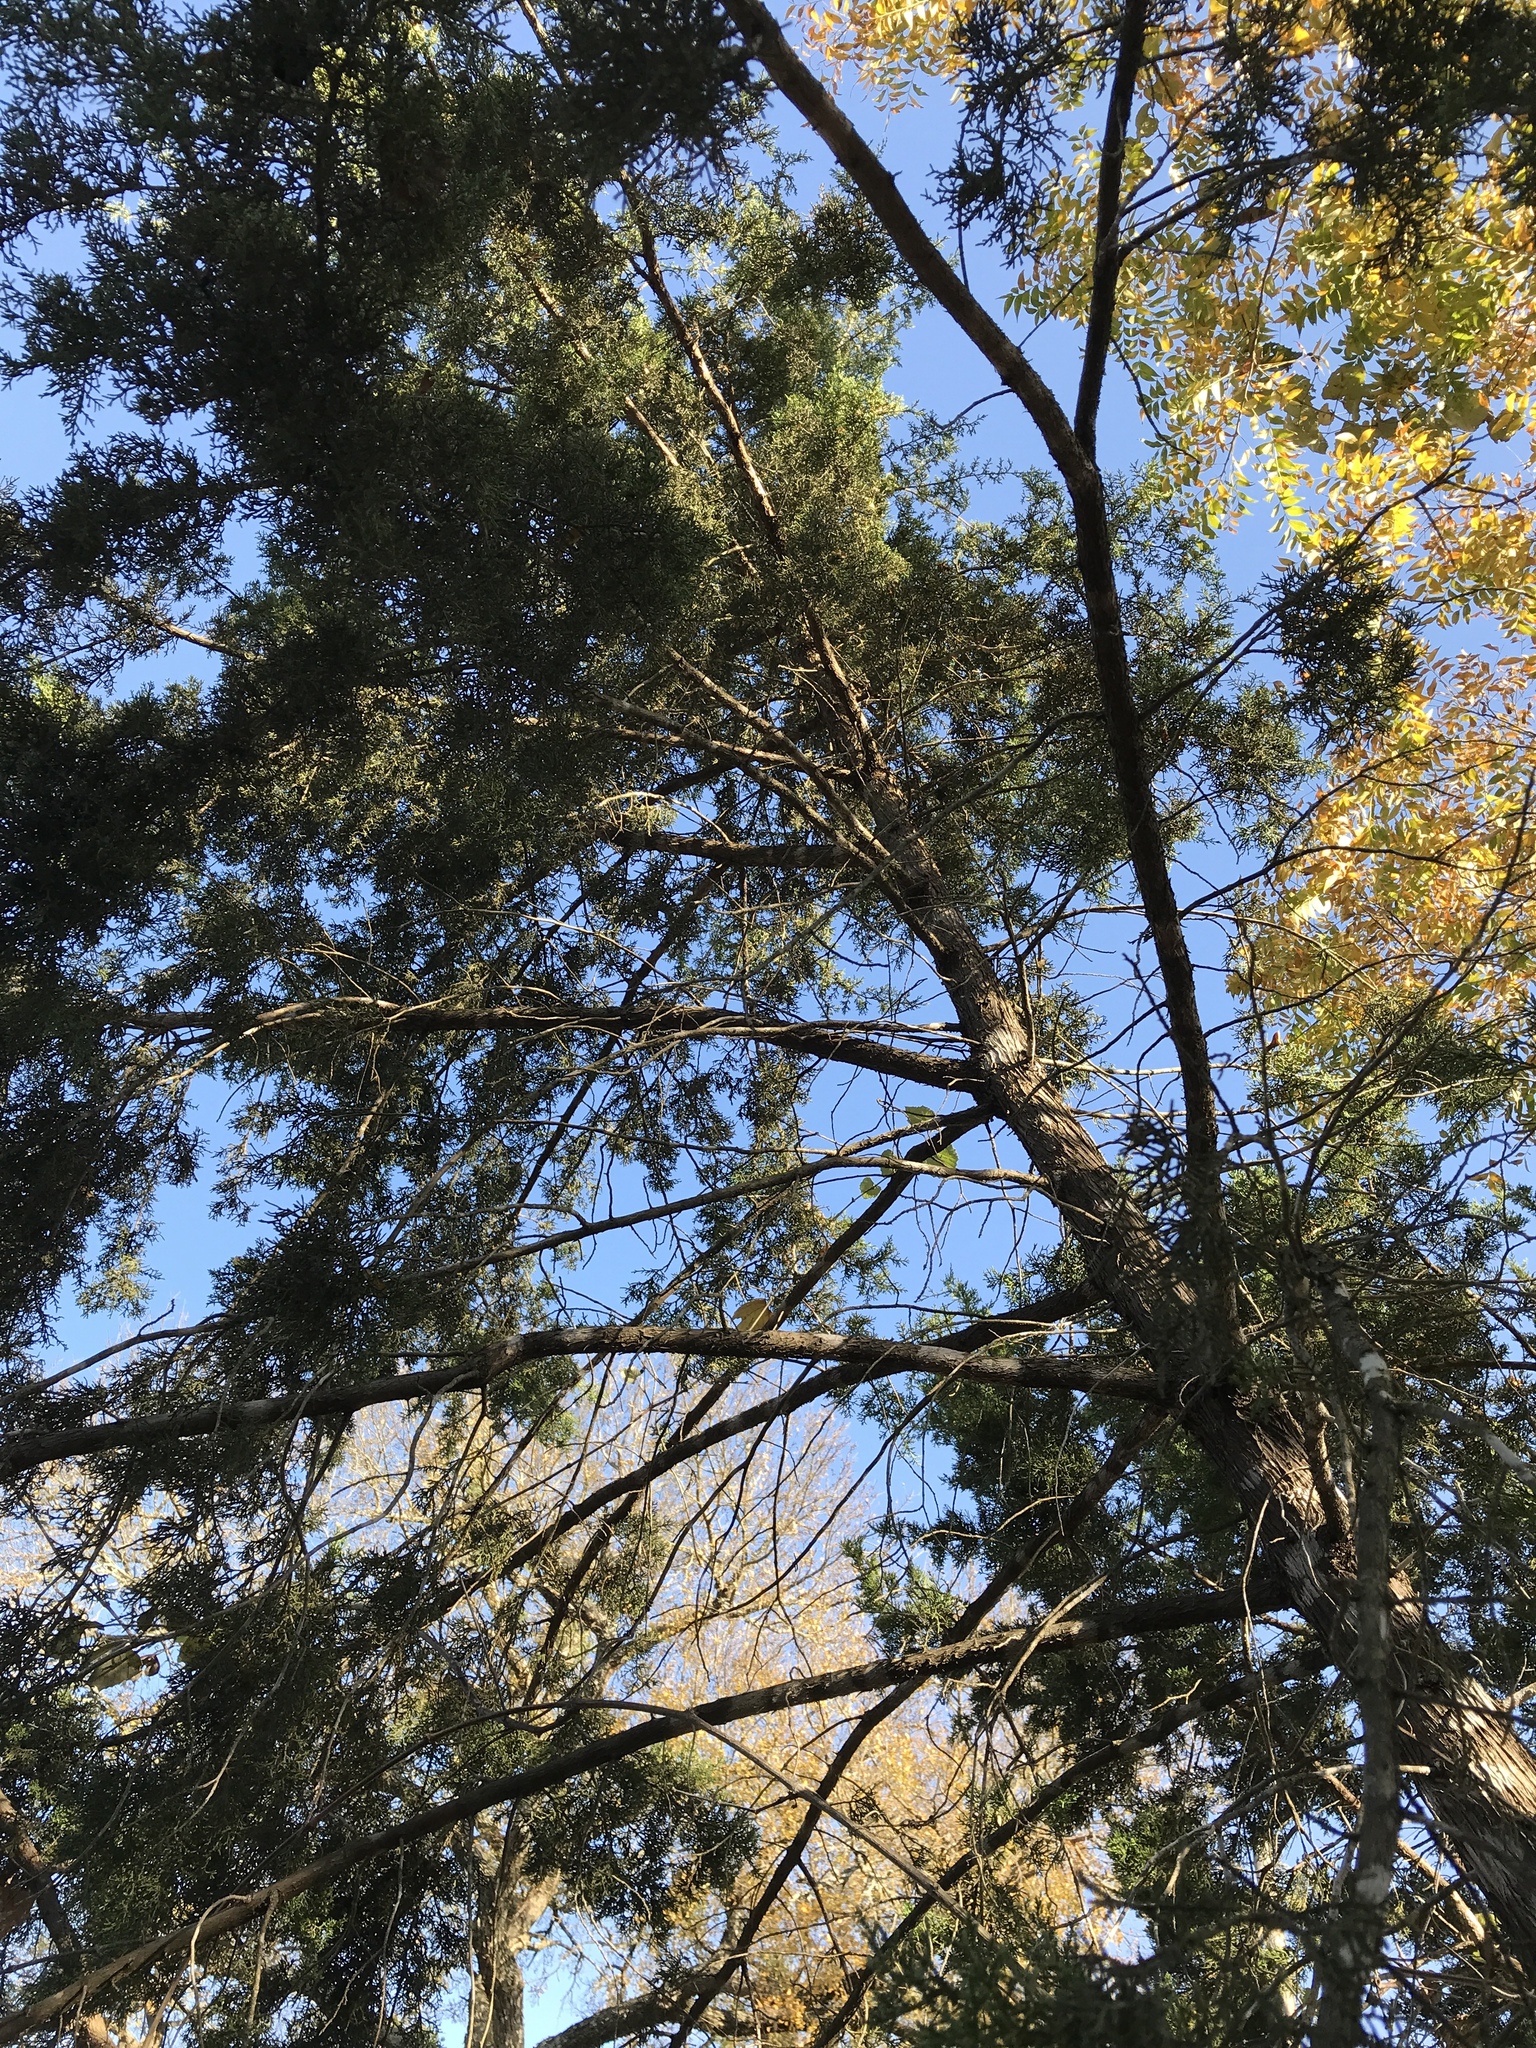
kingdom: Plantae
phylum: Tracheophyta
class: Pinopsida
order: Pinales
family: Cupressaceae
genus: Juniperus
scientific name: Juniperus ashei
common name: Mexican juniper
